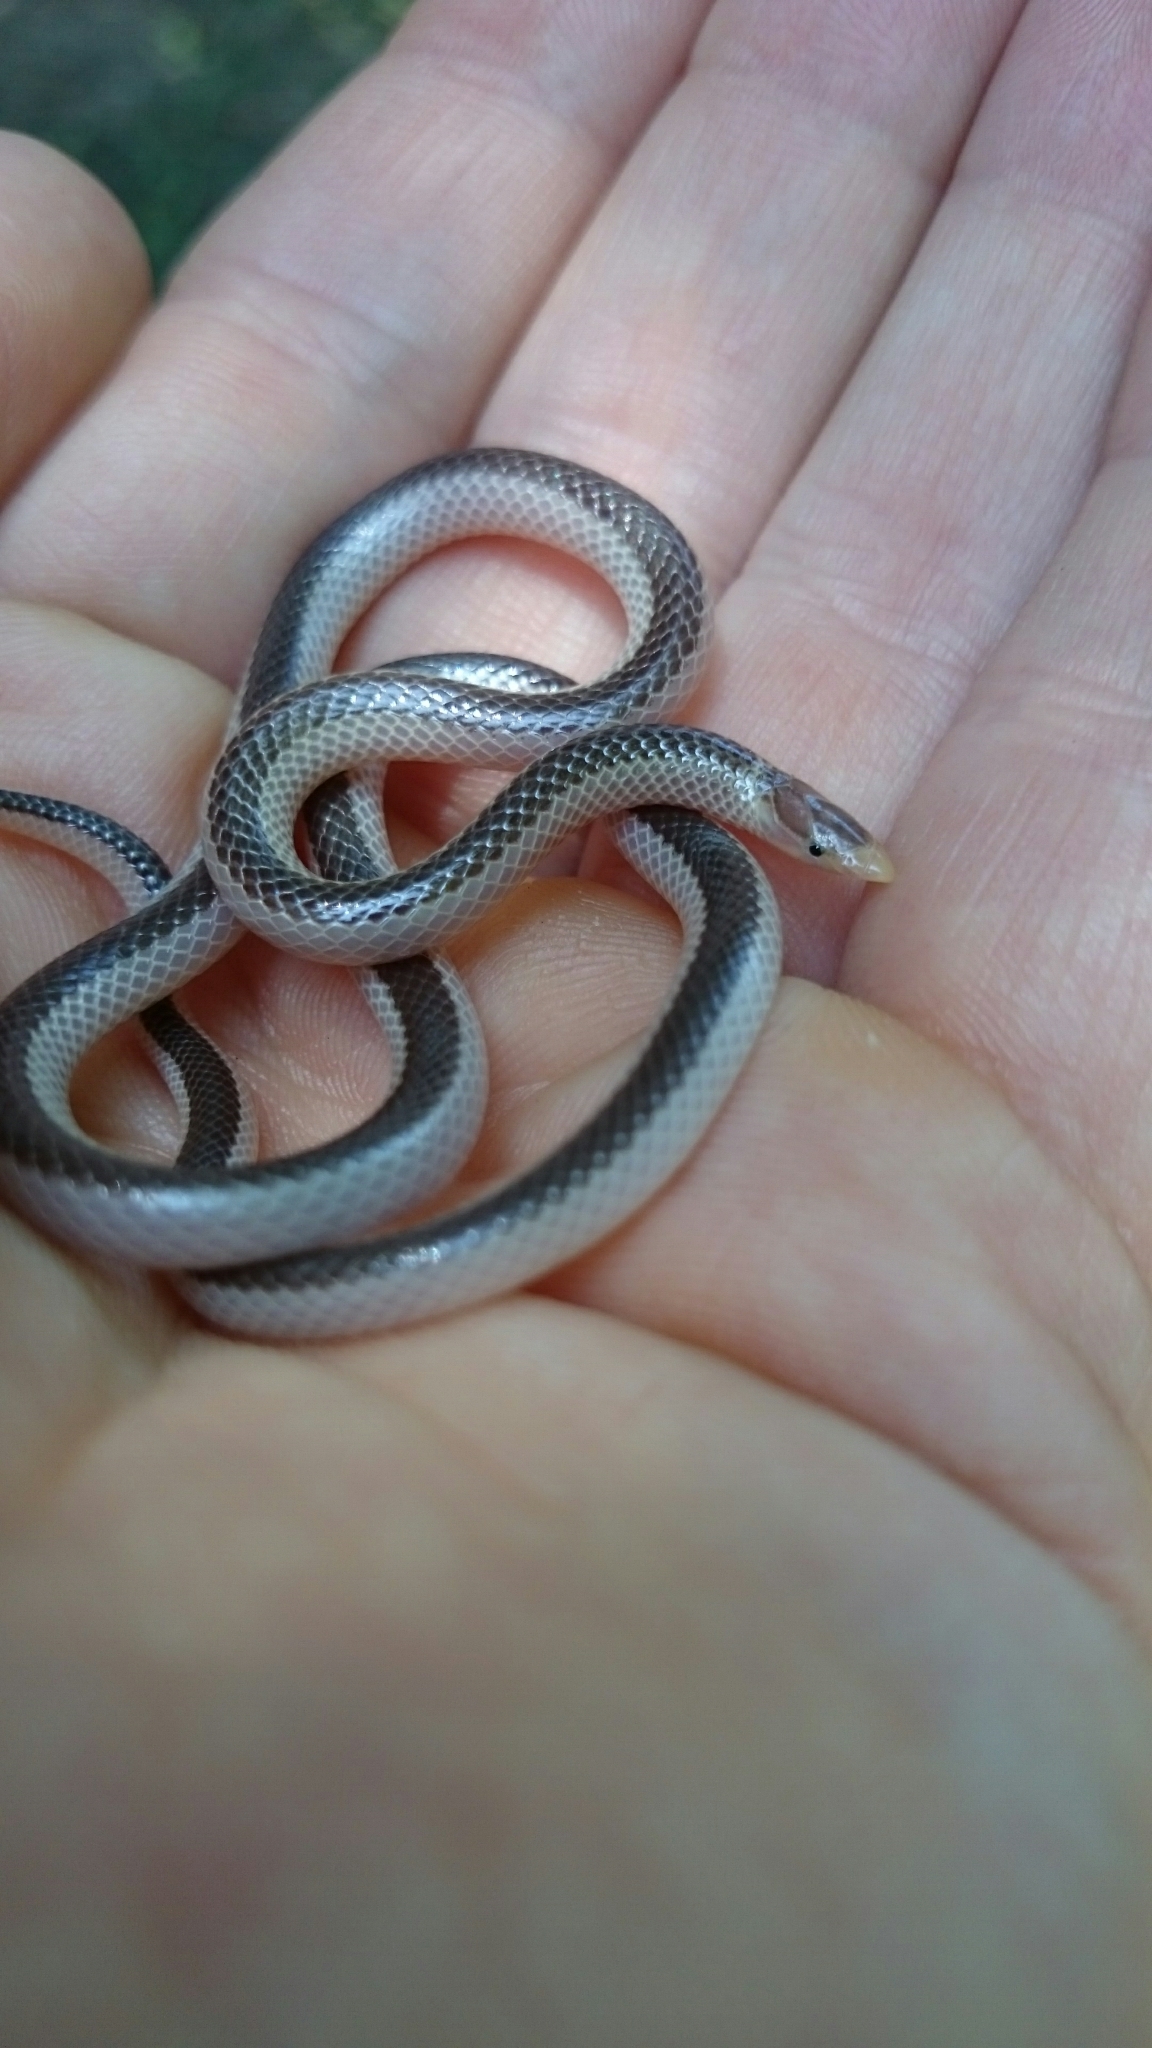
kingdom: Animalia
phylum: Chordata
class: Squamata
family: Atractaspididae
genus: Xenocalamus
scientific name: Xenocalamus bicolor
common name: Bicoloured quill-snouted snake
